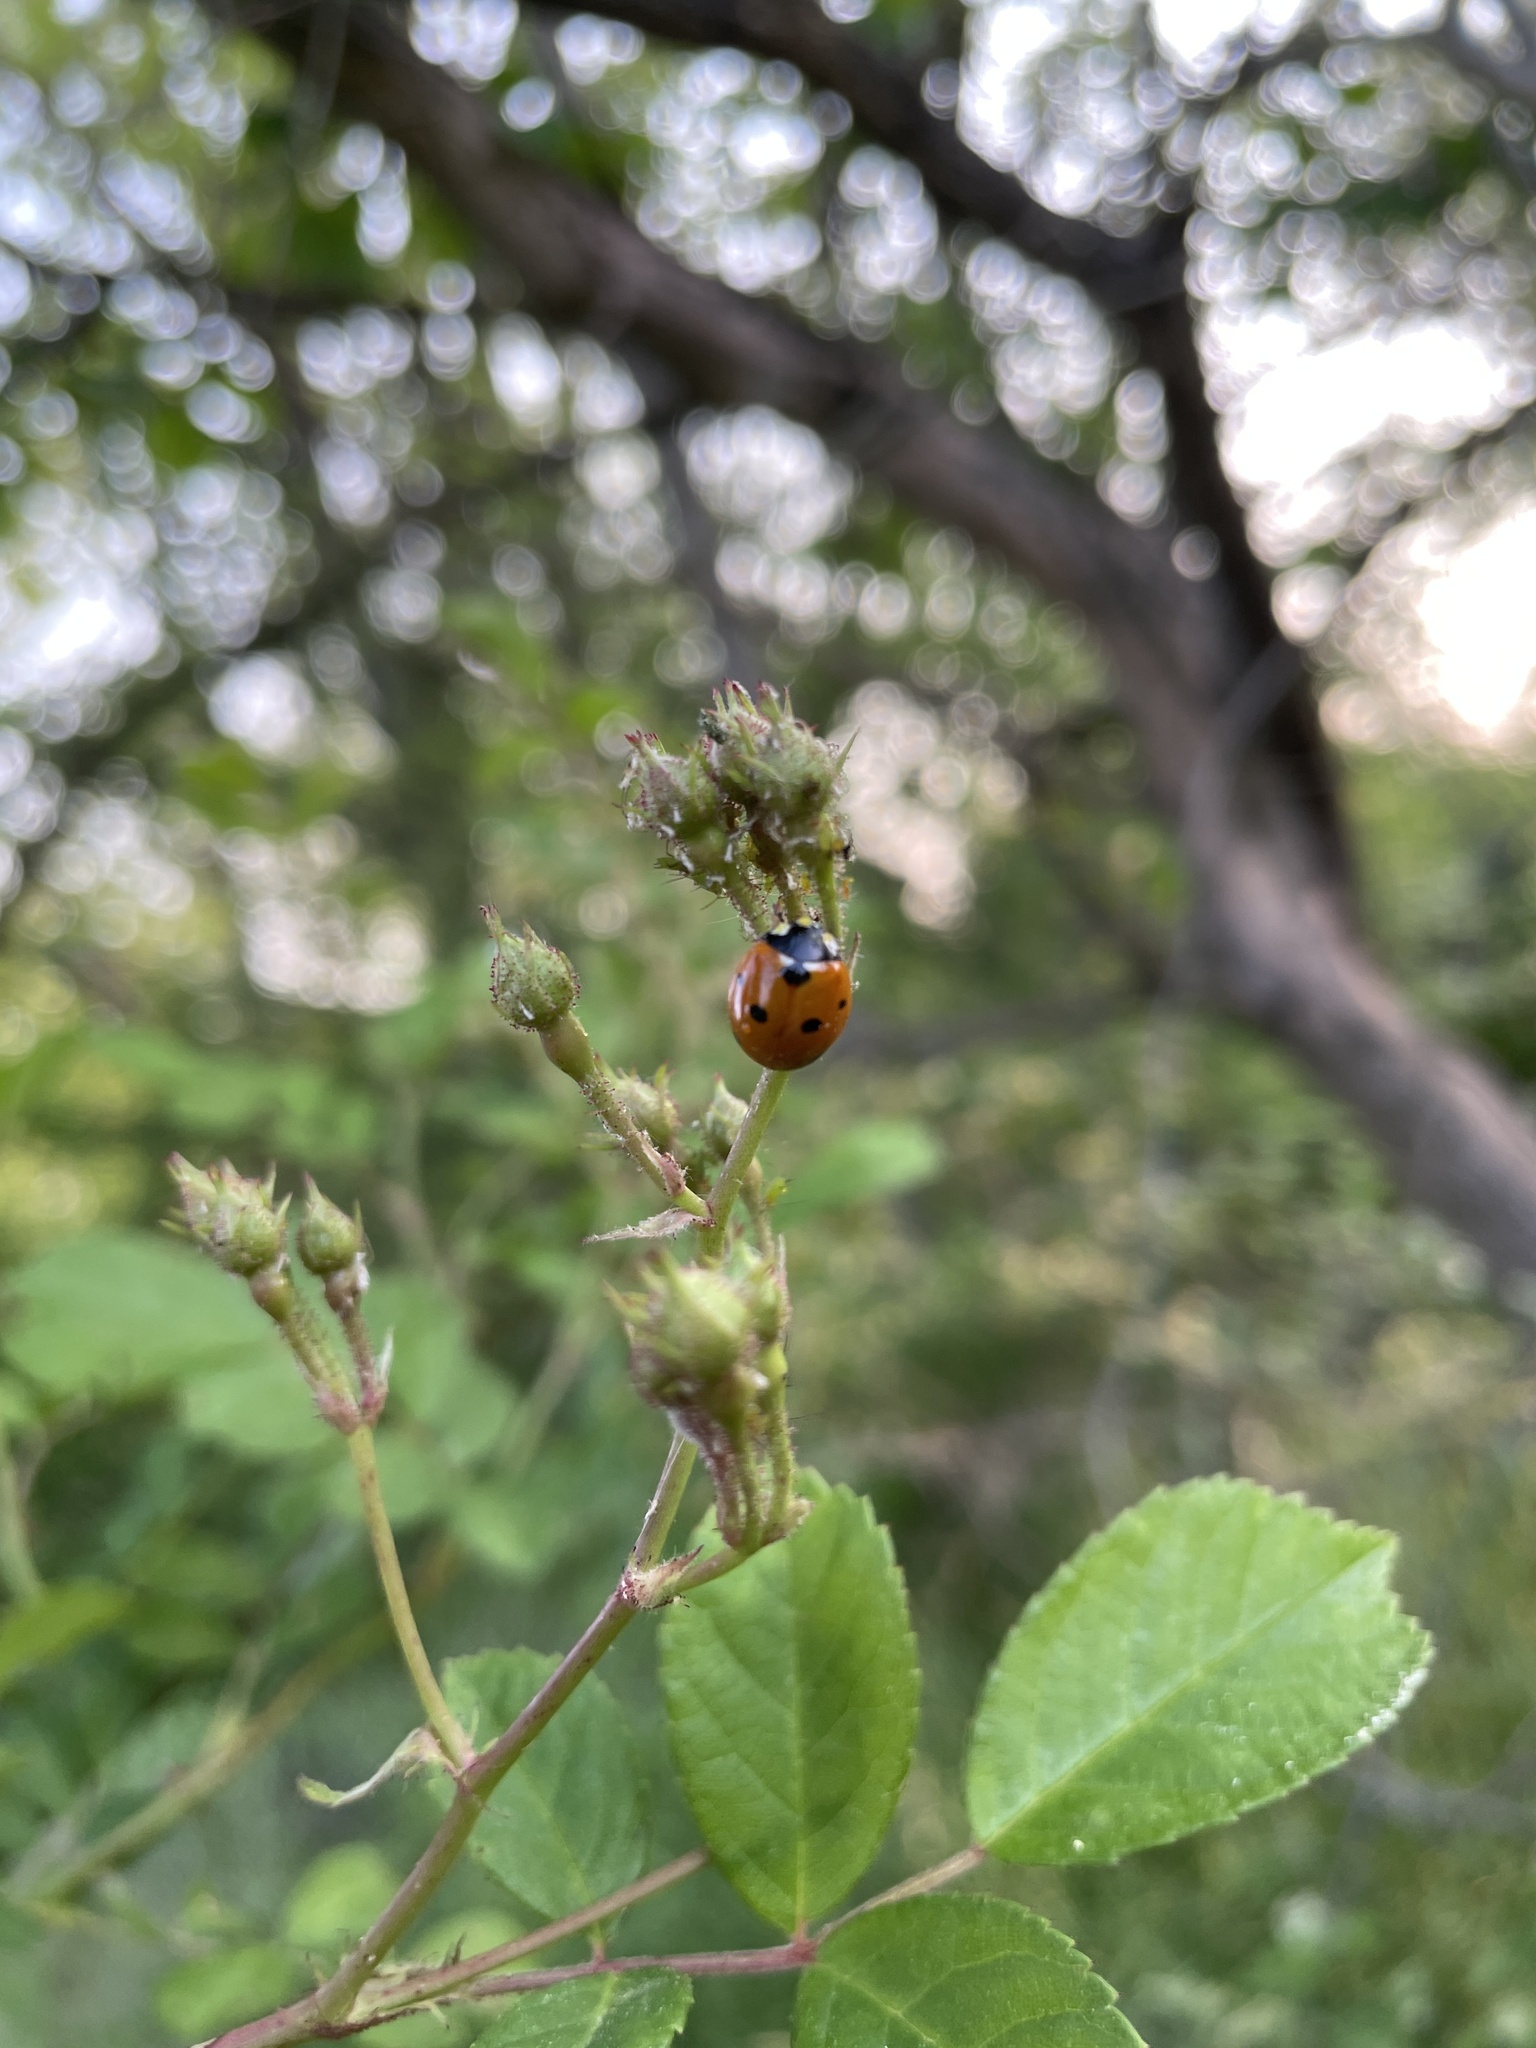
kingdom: Animalia
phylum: Arthropoda
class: Insecta
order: Coleoptera
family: Coccinellidae
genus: Coccinella
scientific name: Coccinella septempunctata
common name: Sevenspotted lady beetle
